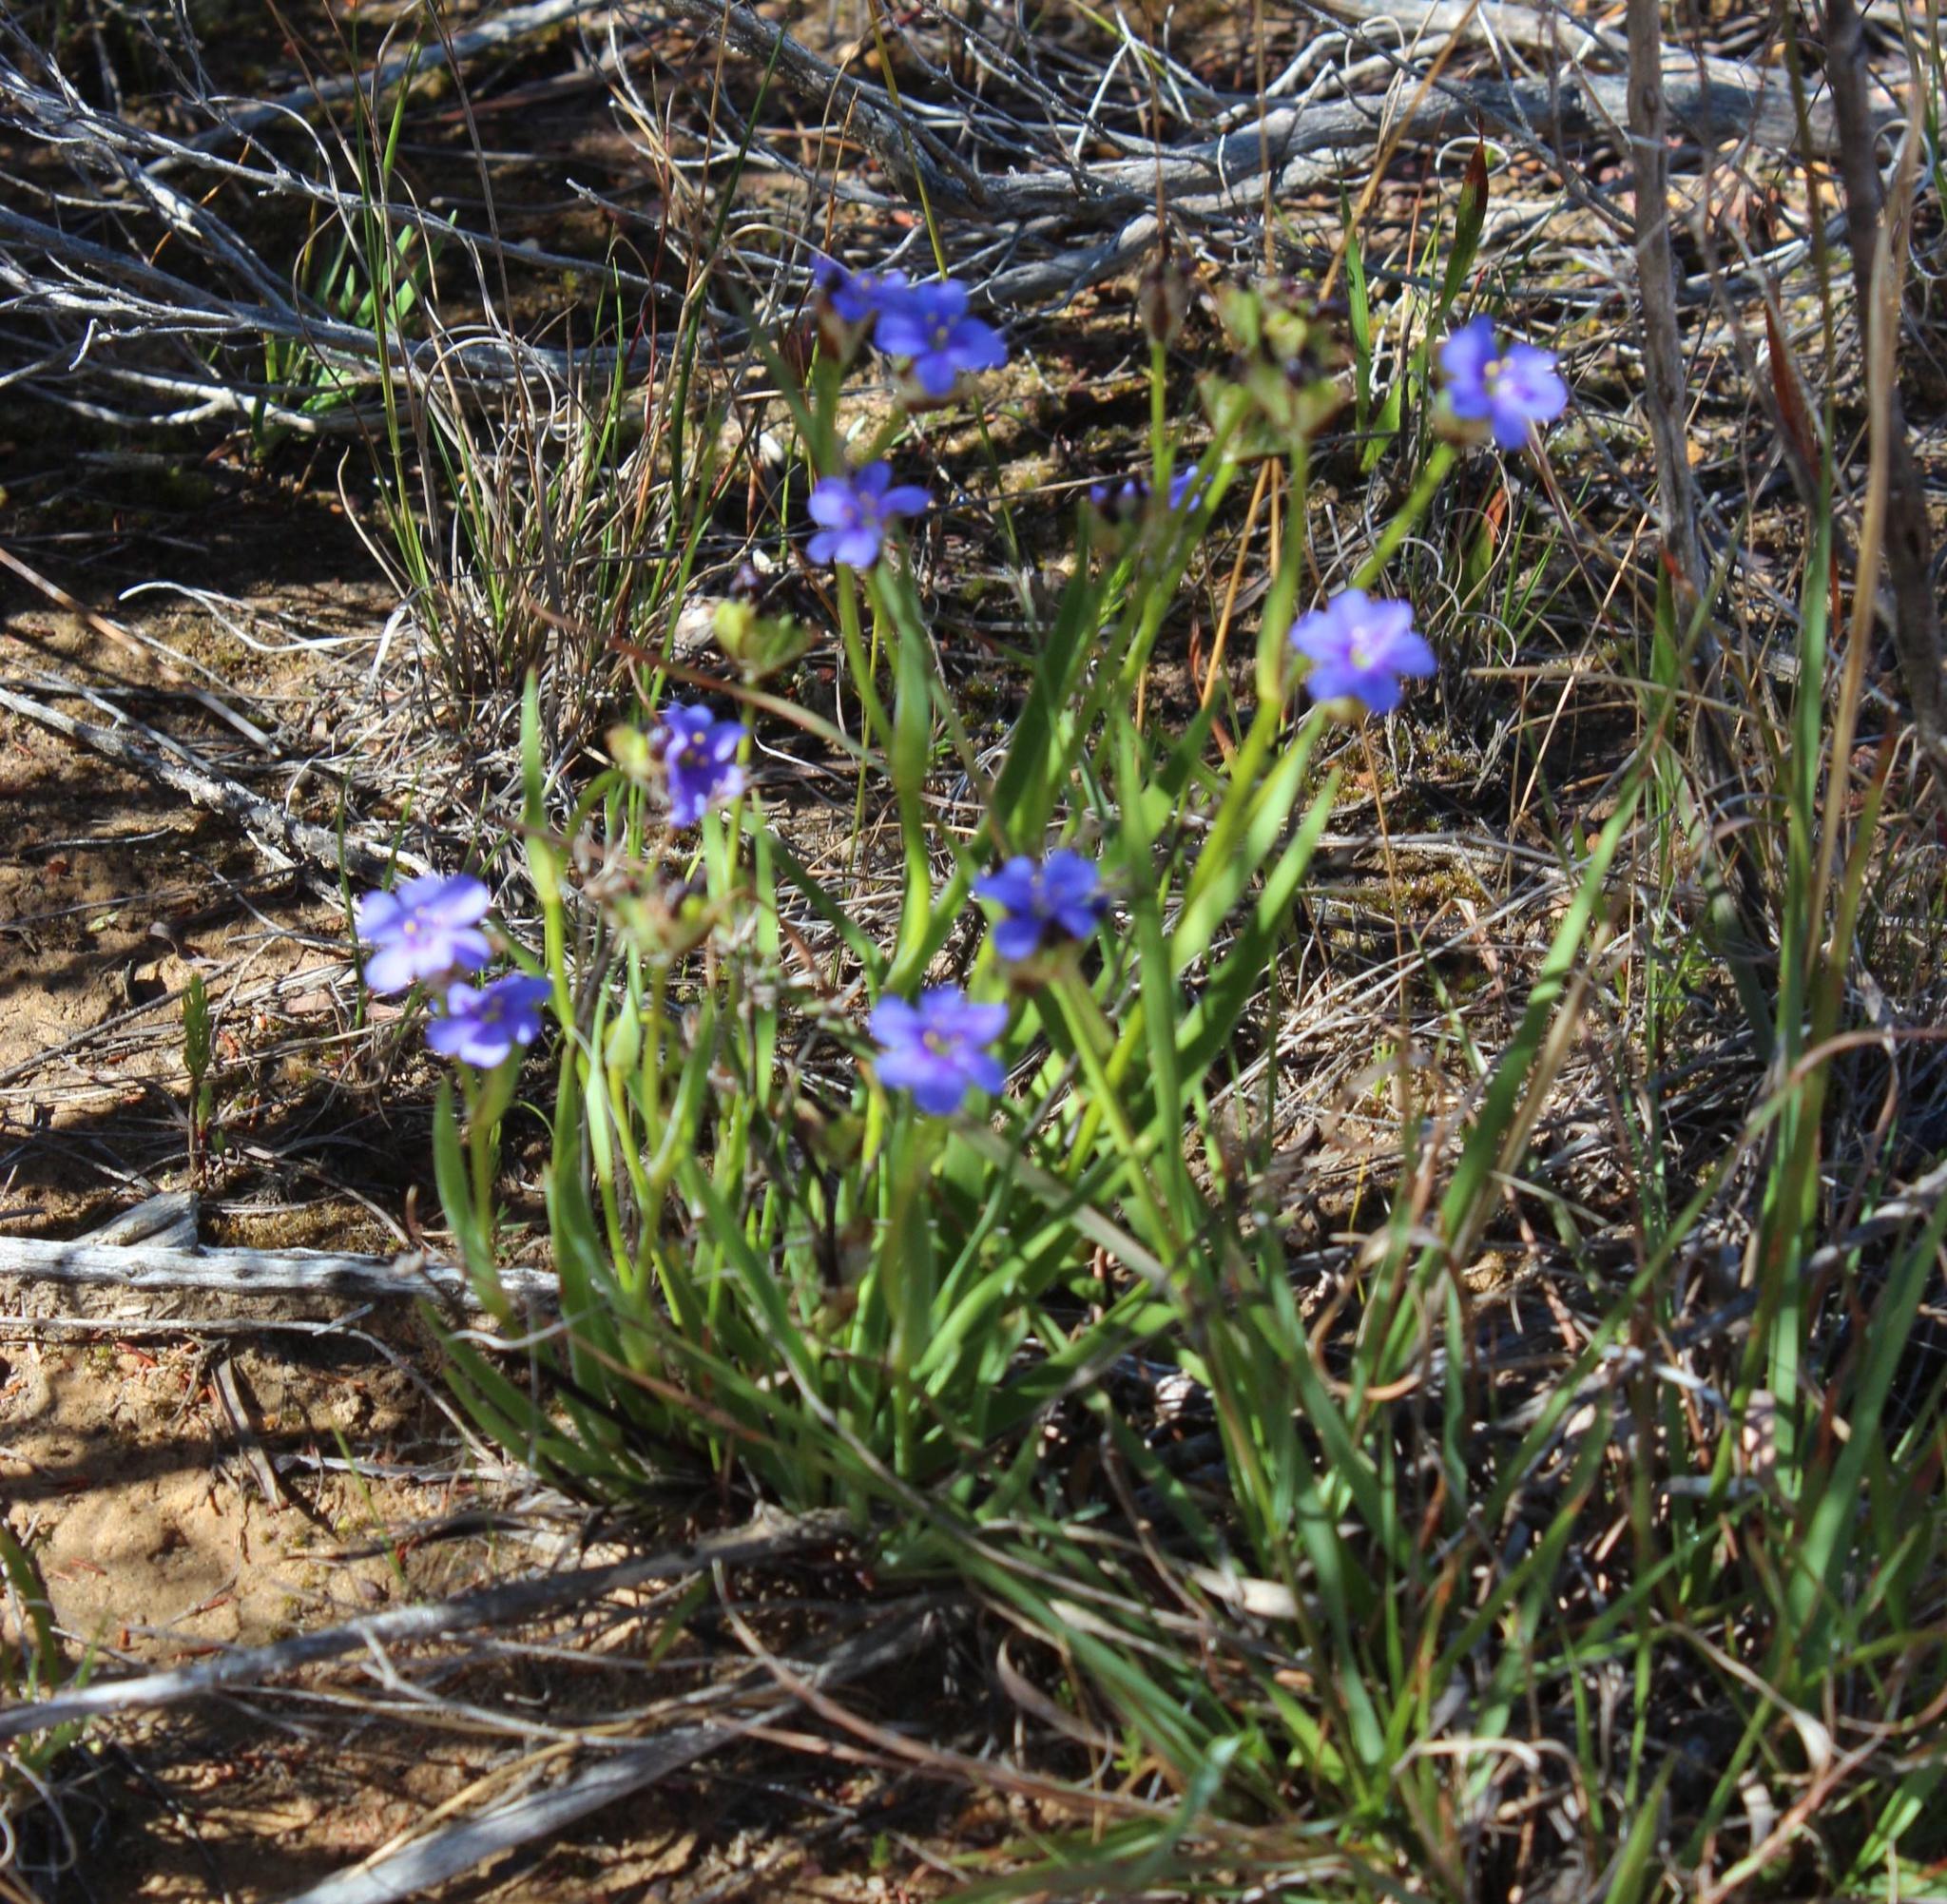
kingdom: Plantae
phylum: Tracheophyta
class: Liliopsida
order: Asparagales
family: Iridaceae
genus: Aristea
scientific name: Aristea africana
